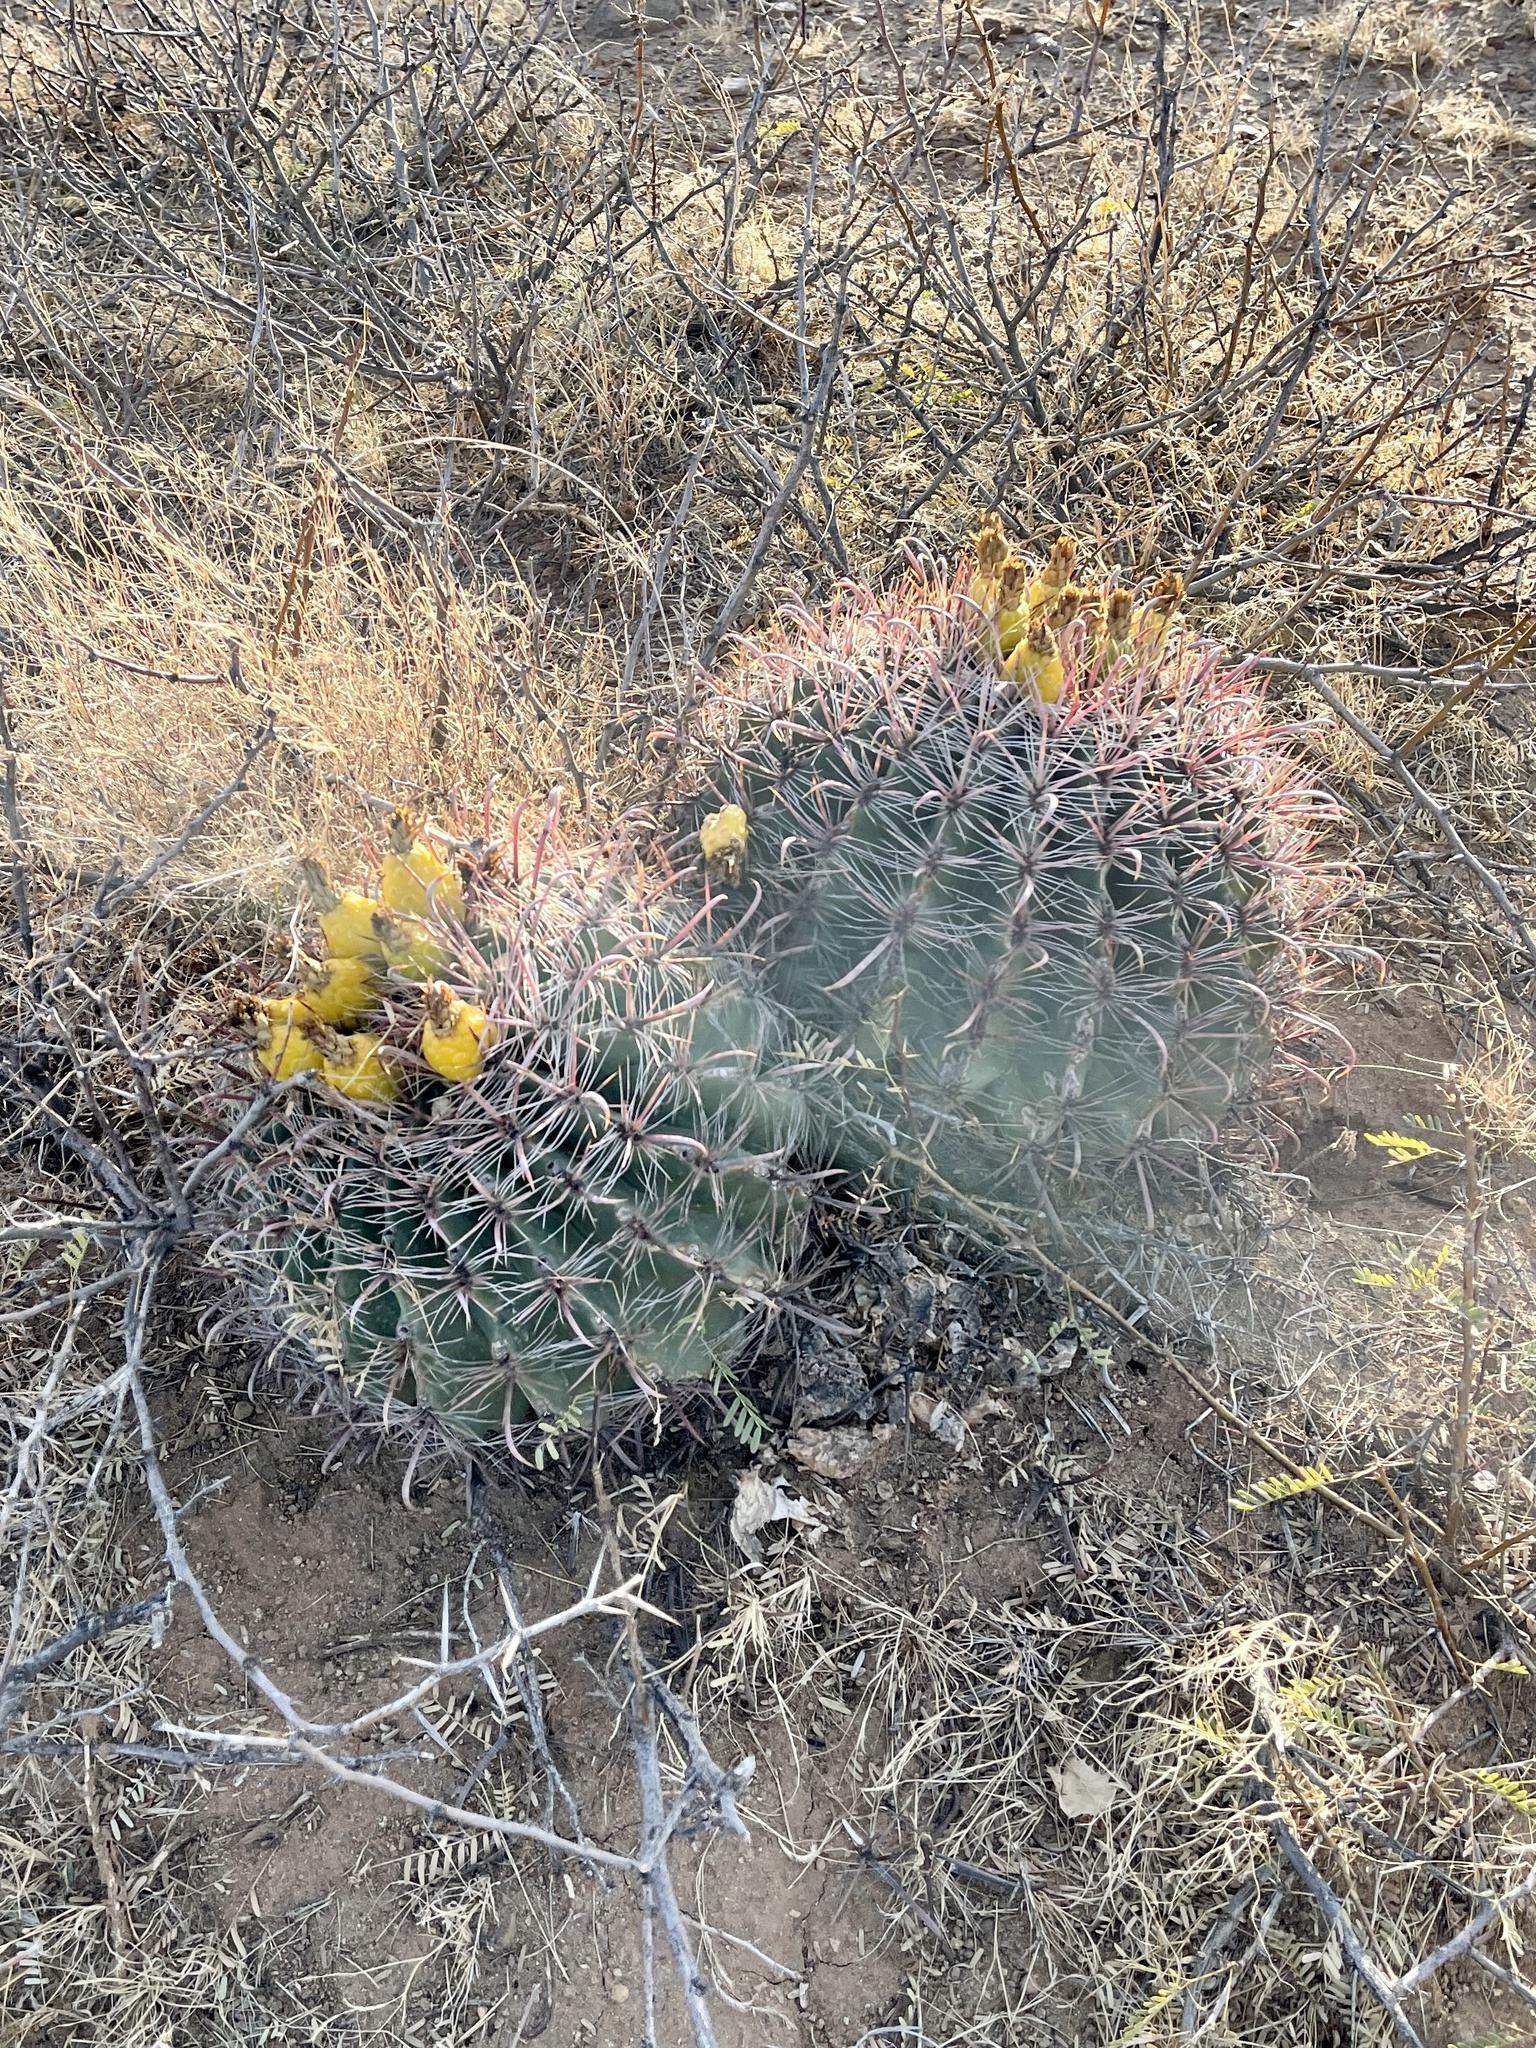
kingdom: Plantae
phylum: Tracheophyta
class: Magnoliopsida
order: Caryophyllales
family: Cactaceae
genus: Ferocactus
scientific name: Ferocactus wislizeni
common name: Candy barrel cactus
